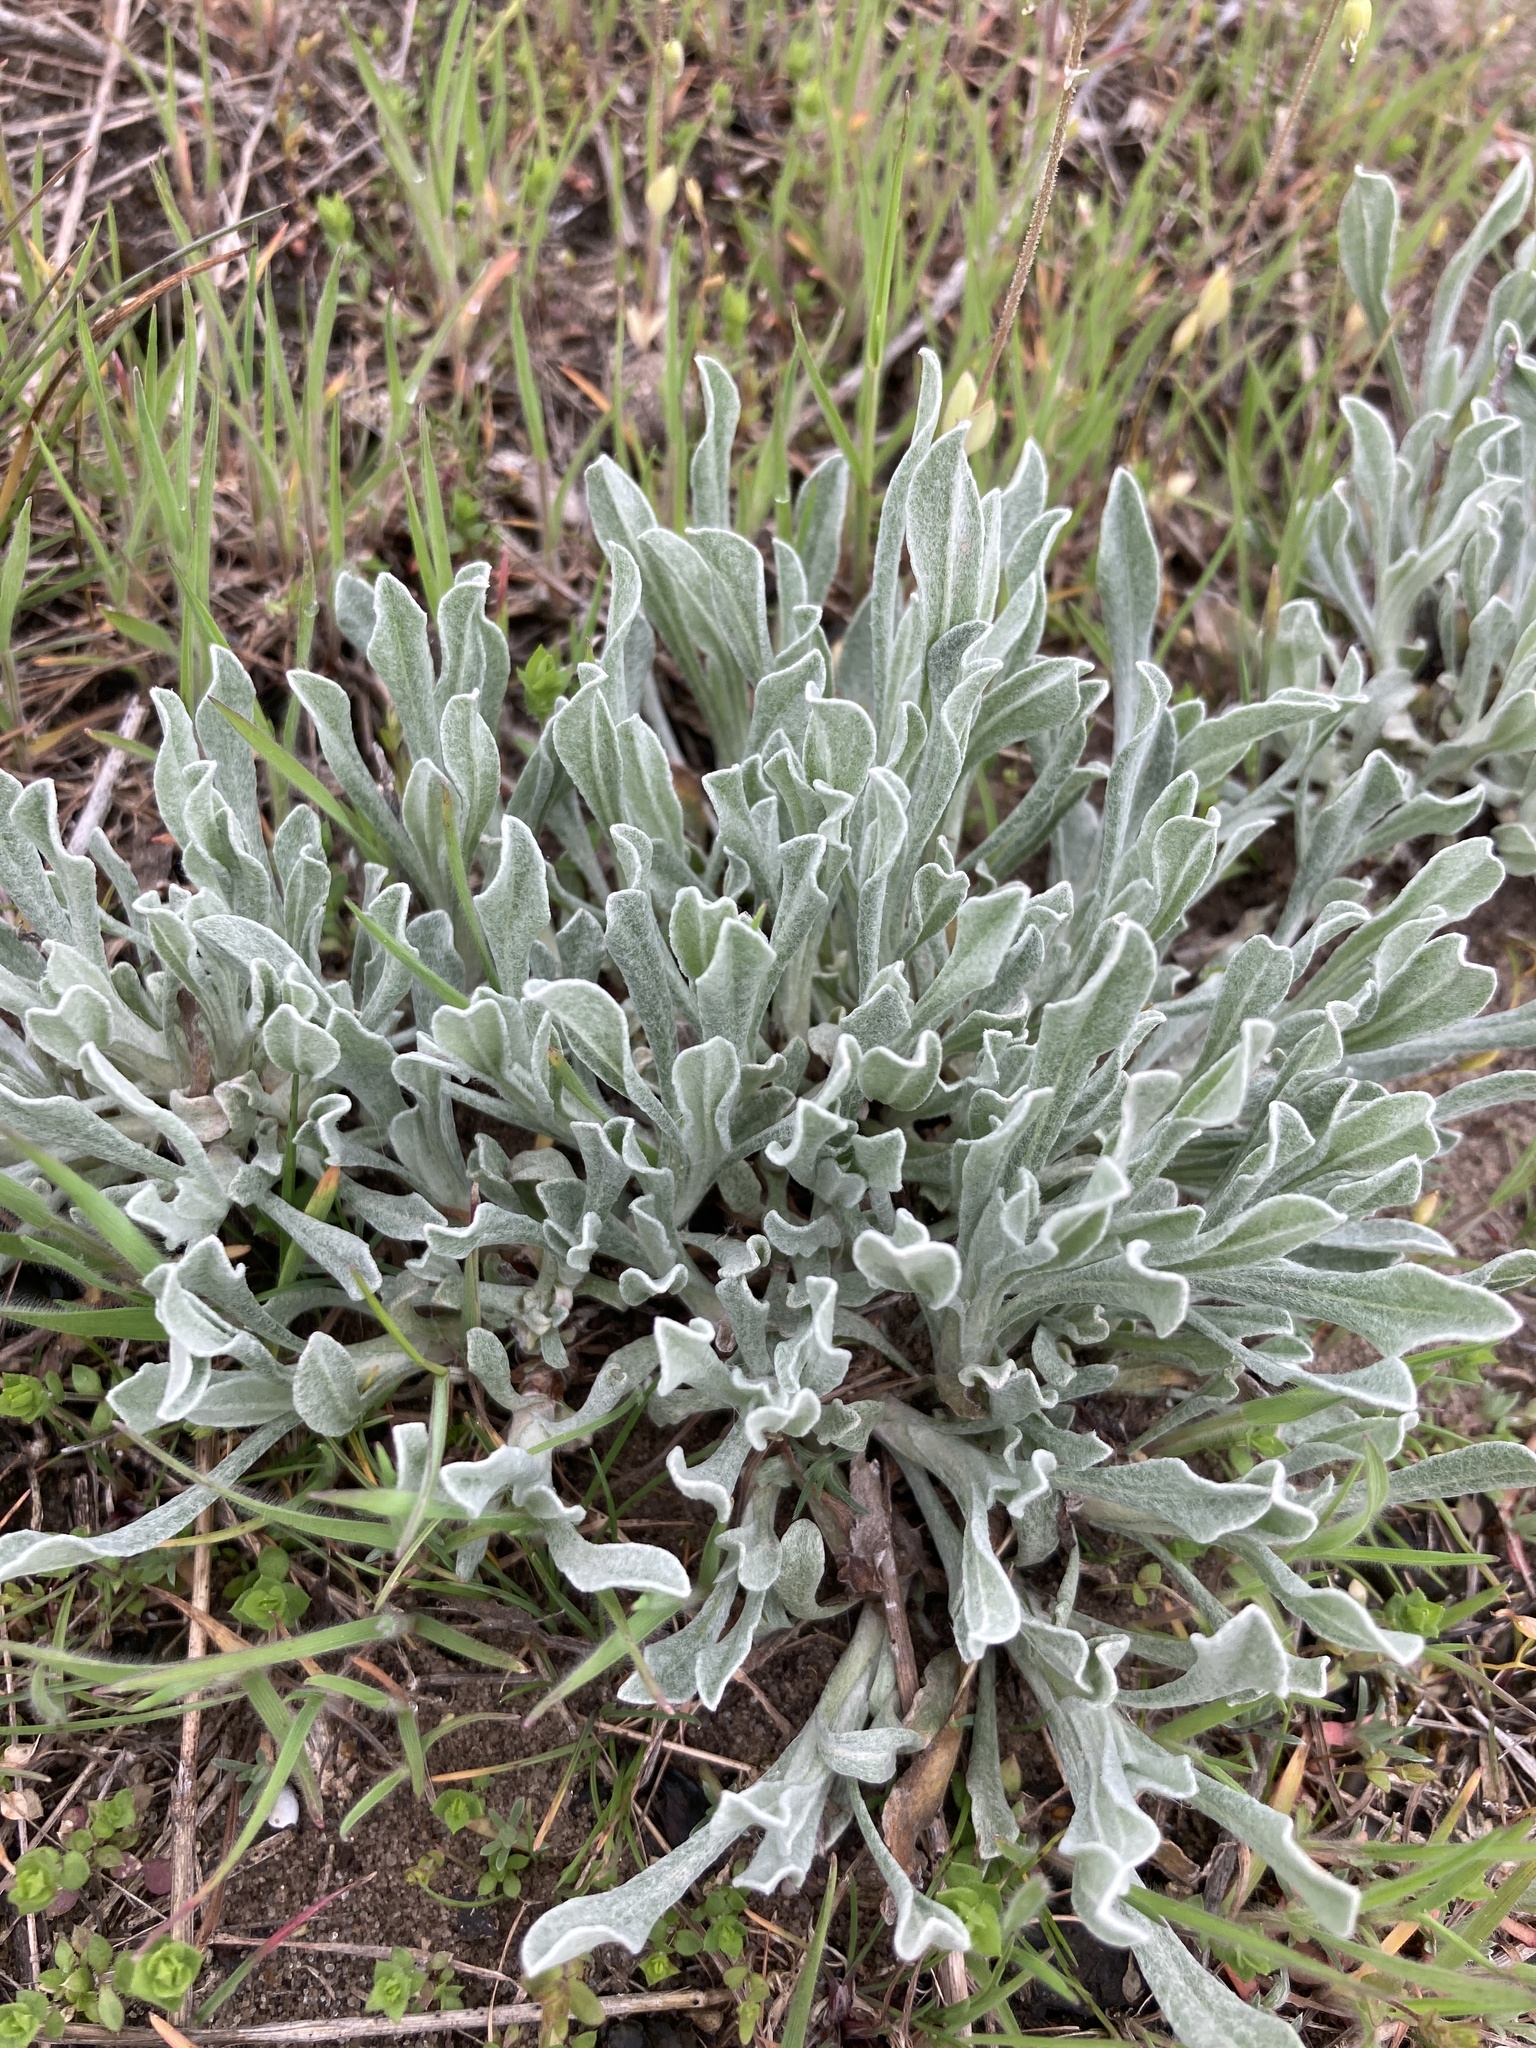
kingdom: Plantae
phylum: Tracheophyta
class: Magnoliopsida
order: Asterales
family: Asteraceae
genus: Helichrysum
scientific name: Helichrysum arenarium
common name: Strawflower
